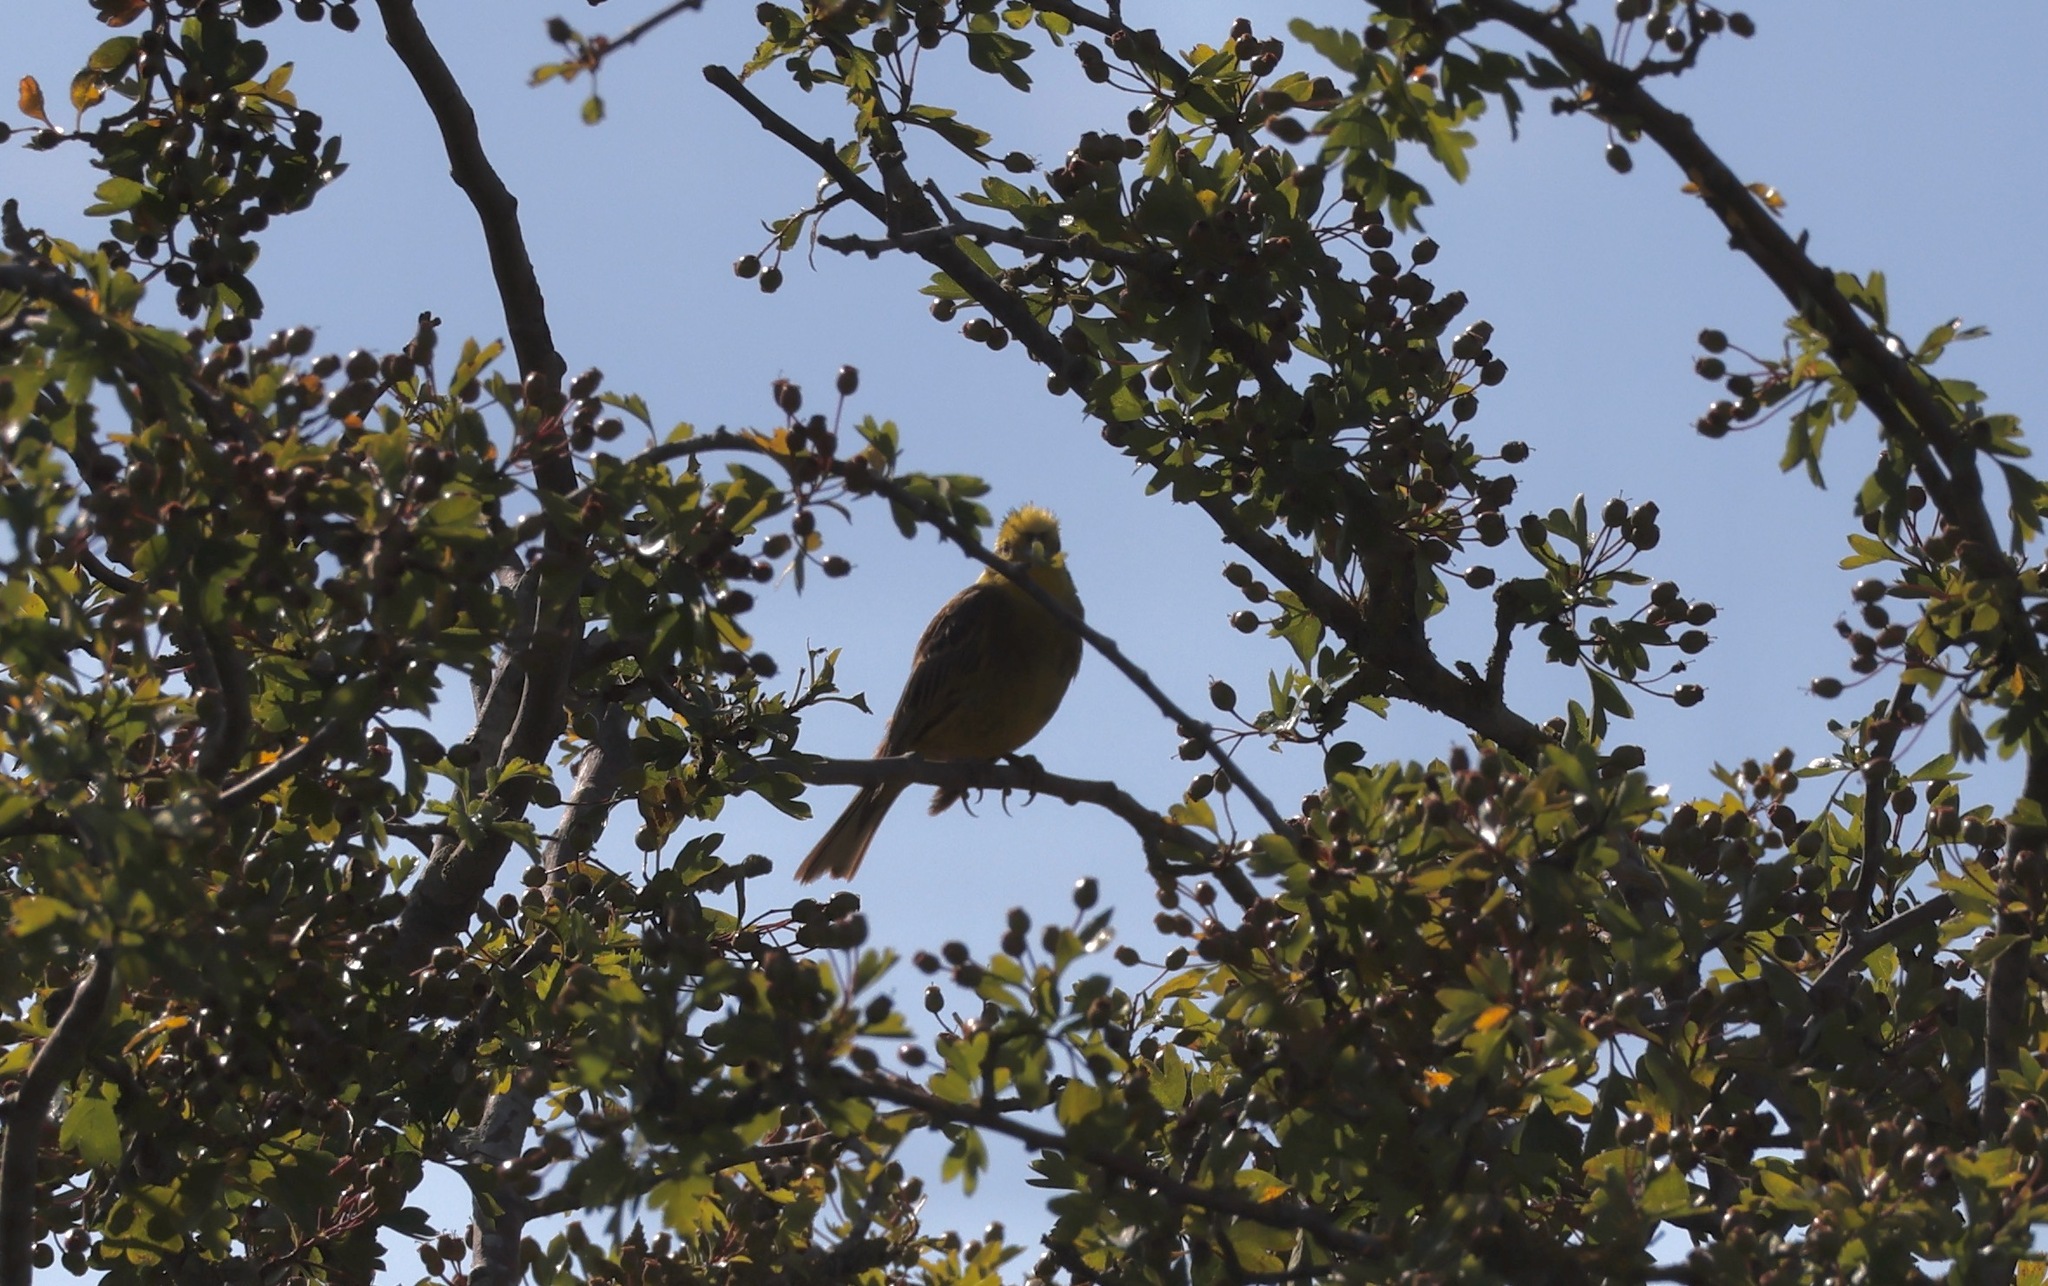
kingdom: Animalia
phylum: Chordata
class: Aves
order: Passeriformes
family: Emberizidae
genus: Emberiza
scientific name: Emberiza citrinella
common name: Yellowhammer
